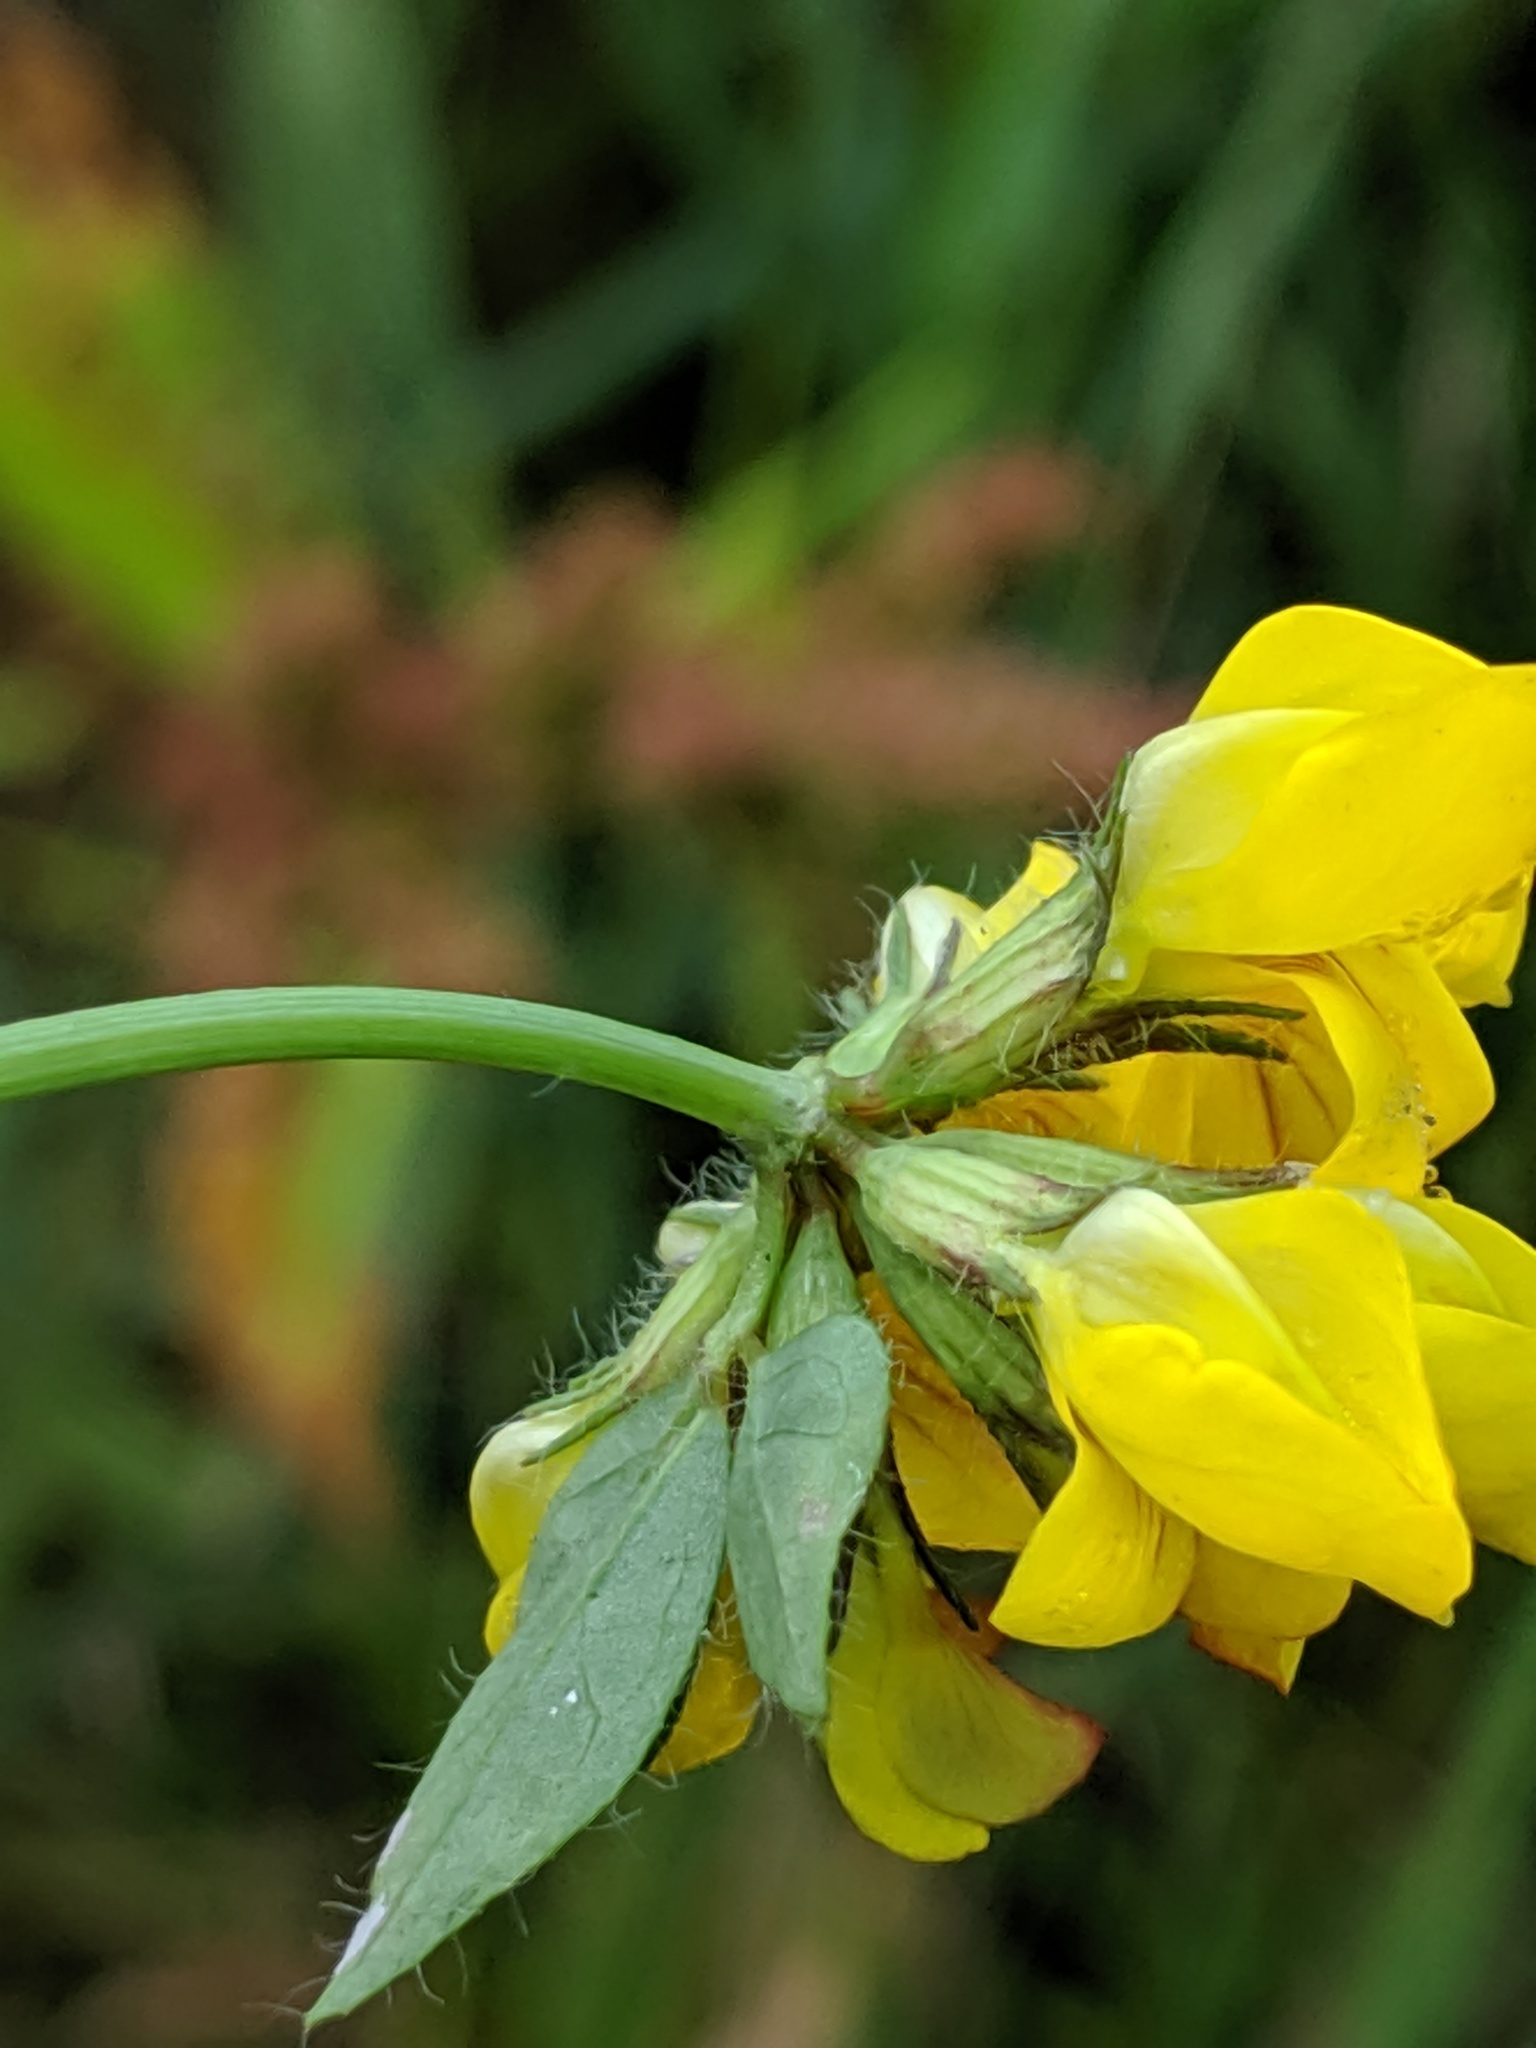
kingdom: Plantae
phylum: Tracheophyta
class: Magnoliopsida
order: Fabales
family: Fabaceae
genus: Lotus
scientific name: Lotus
